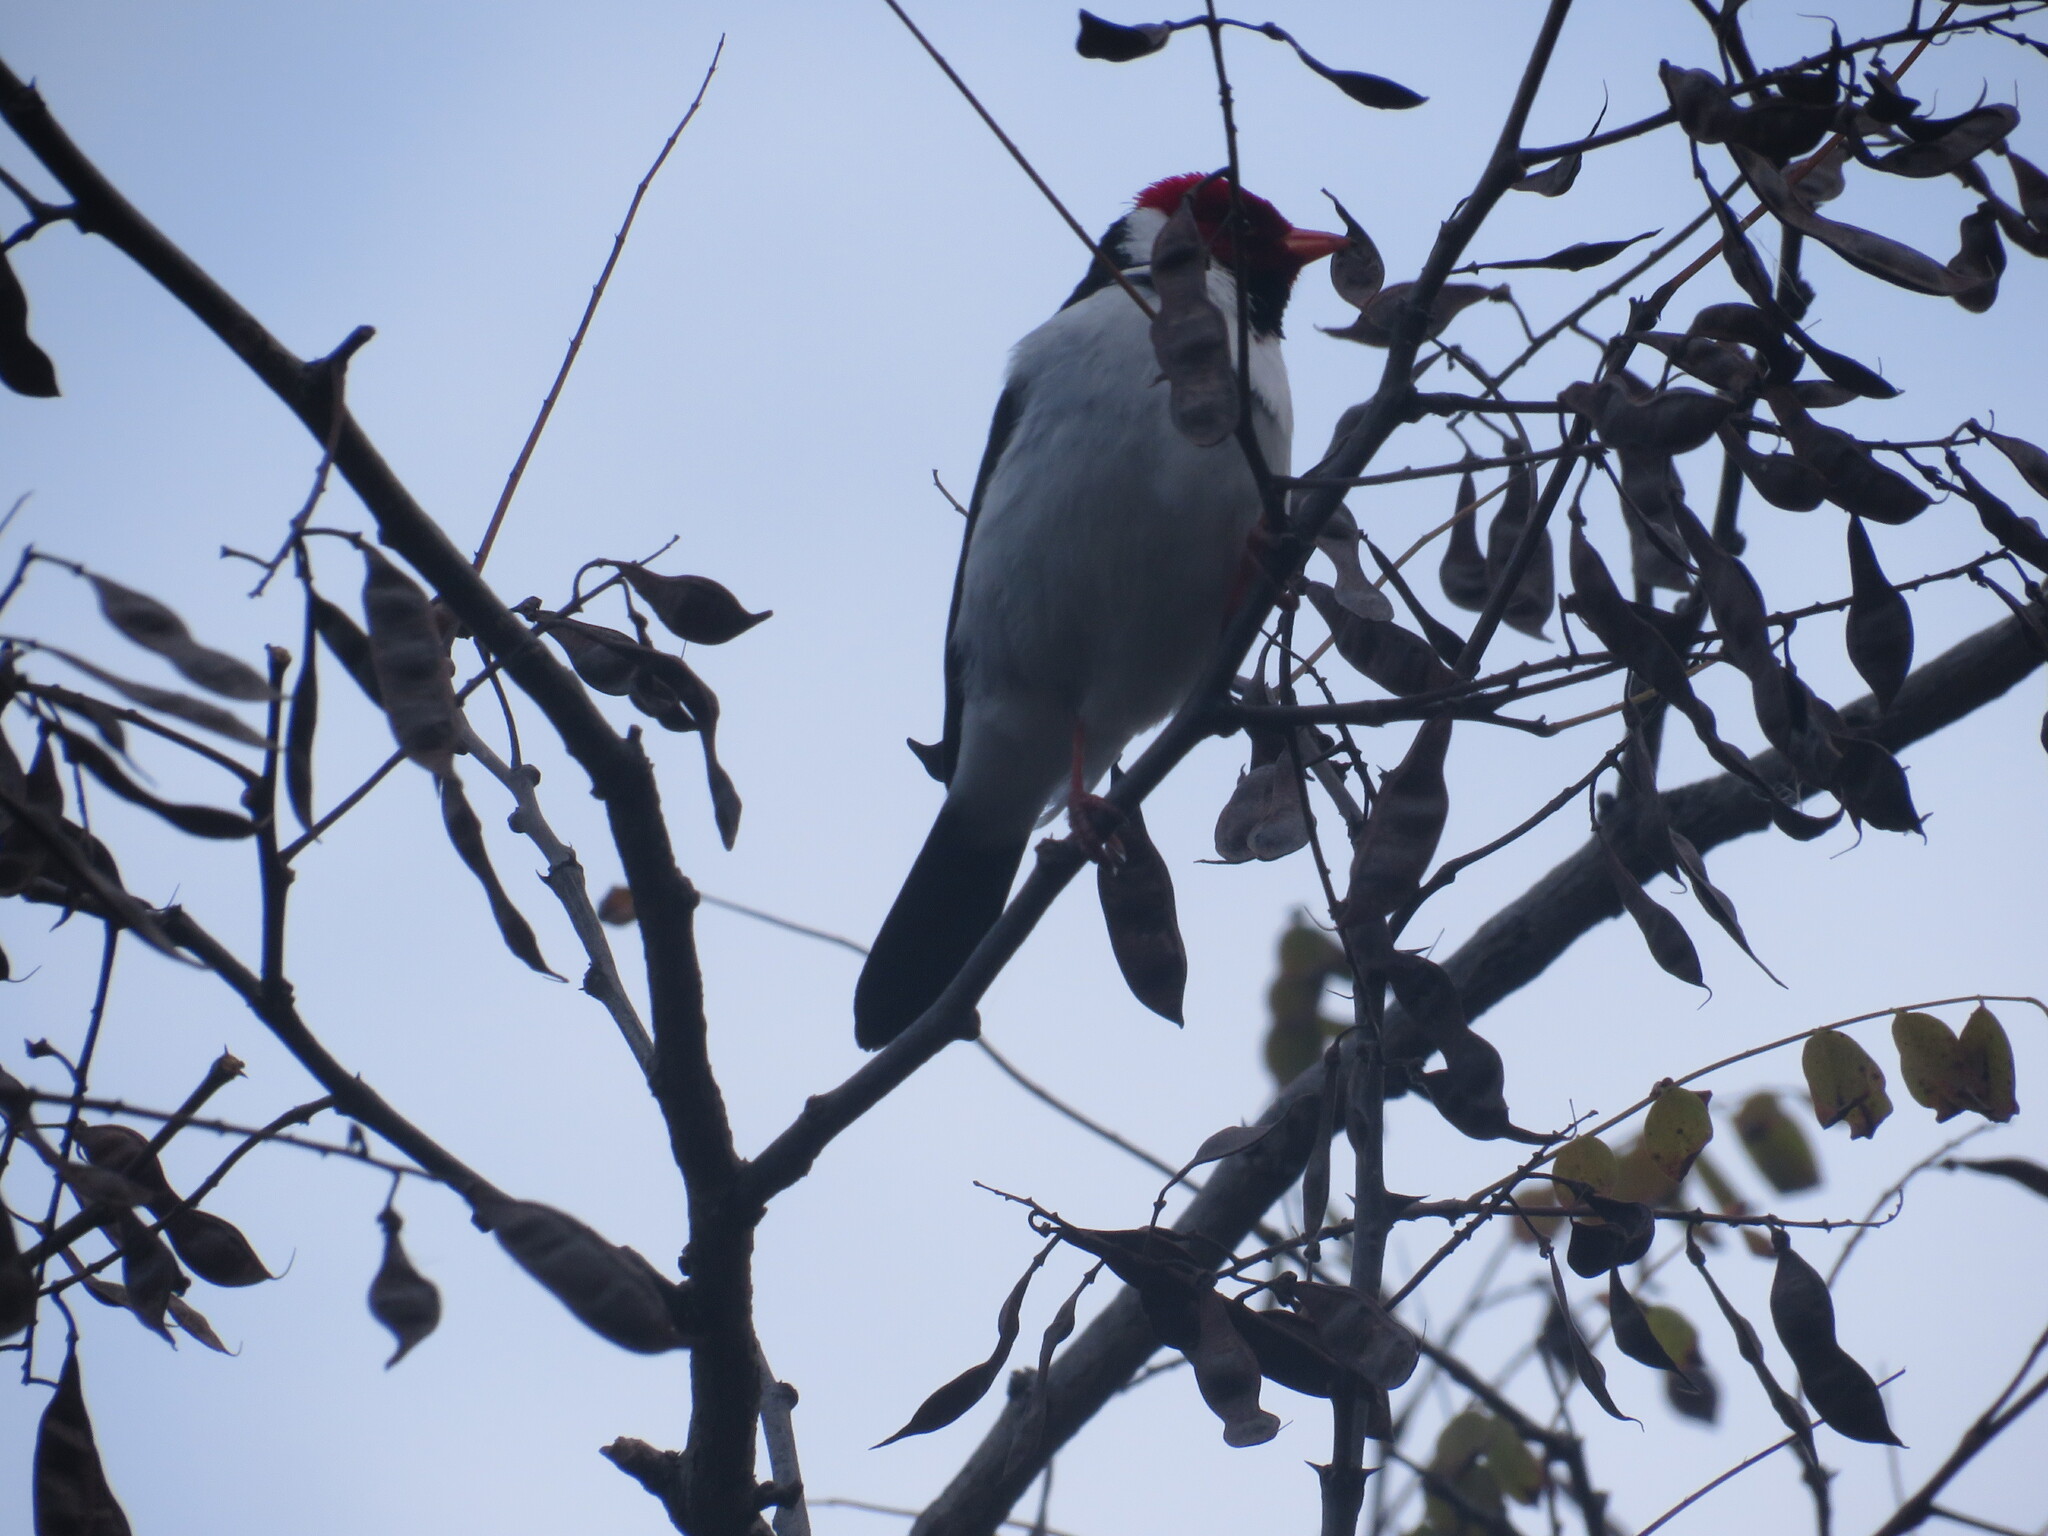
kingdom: Animalia
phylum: Chordata
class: Aves
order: Passeriformes
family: Thraupidae
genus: Paroaria
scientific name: Paroaria capitata
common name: Yellow-billed cardinal
